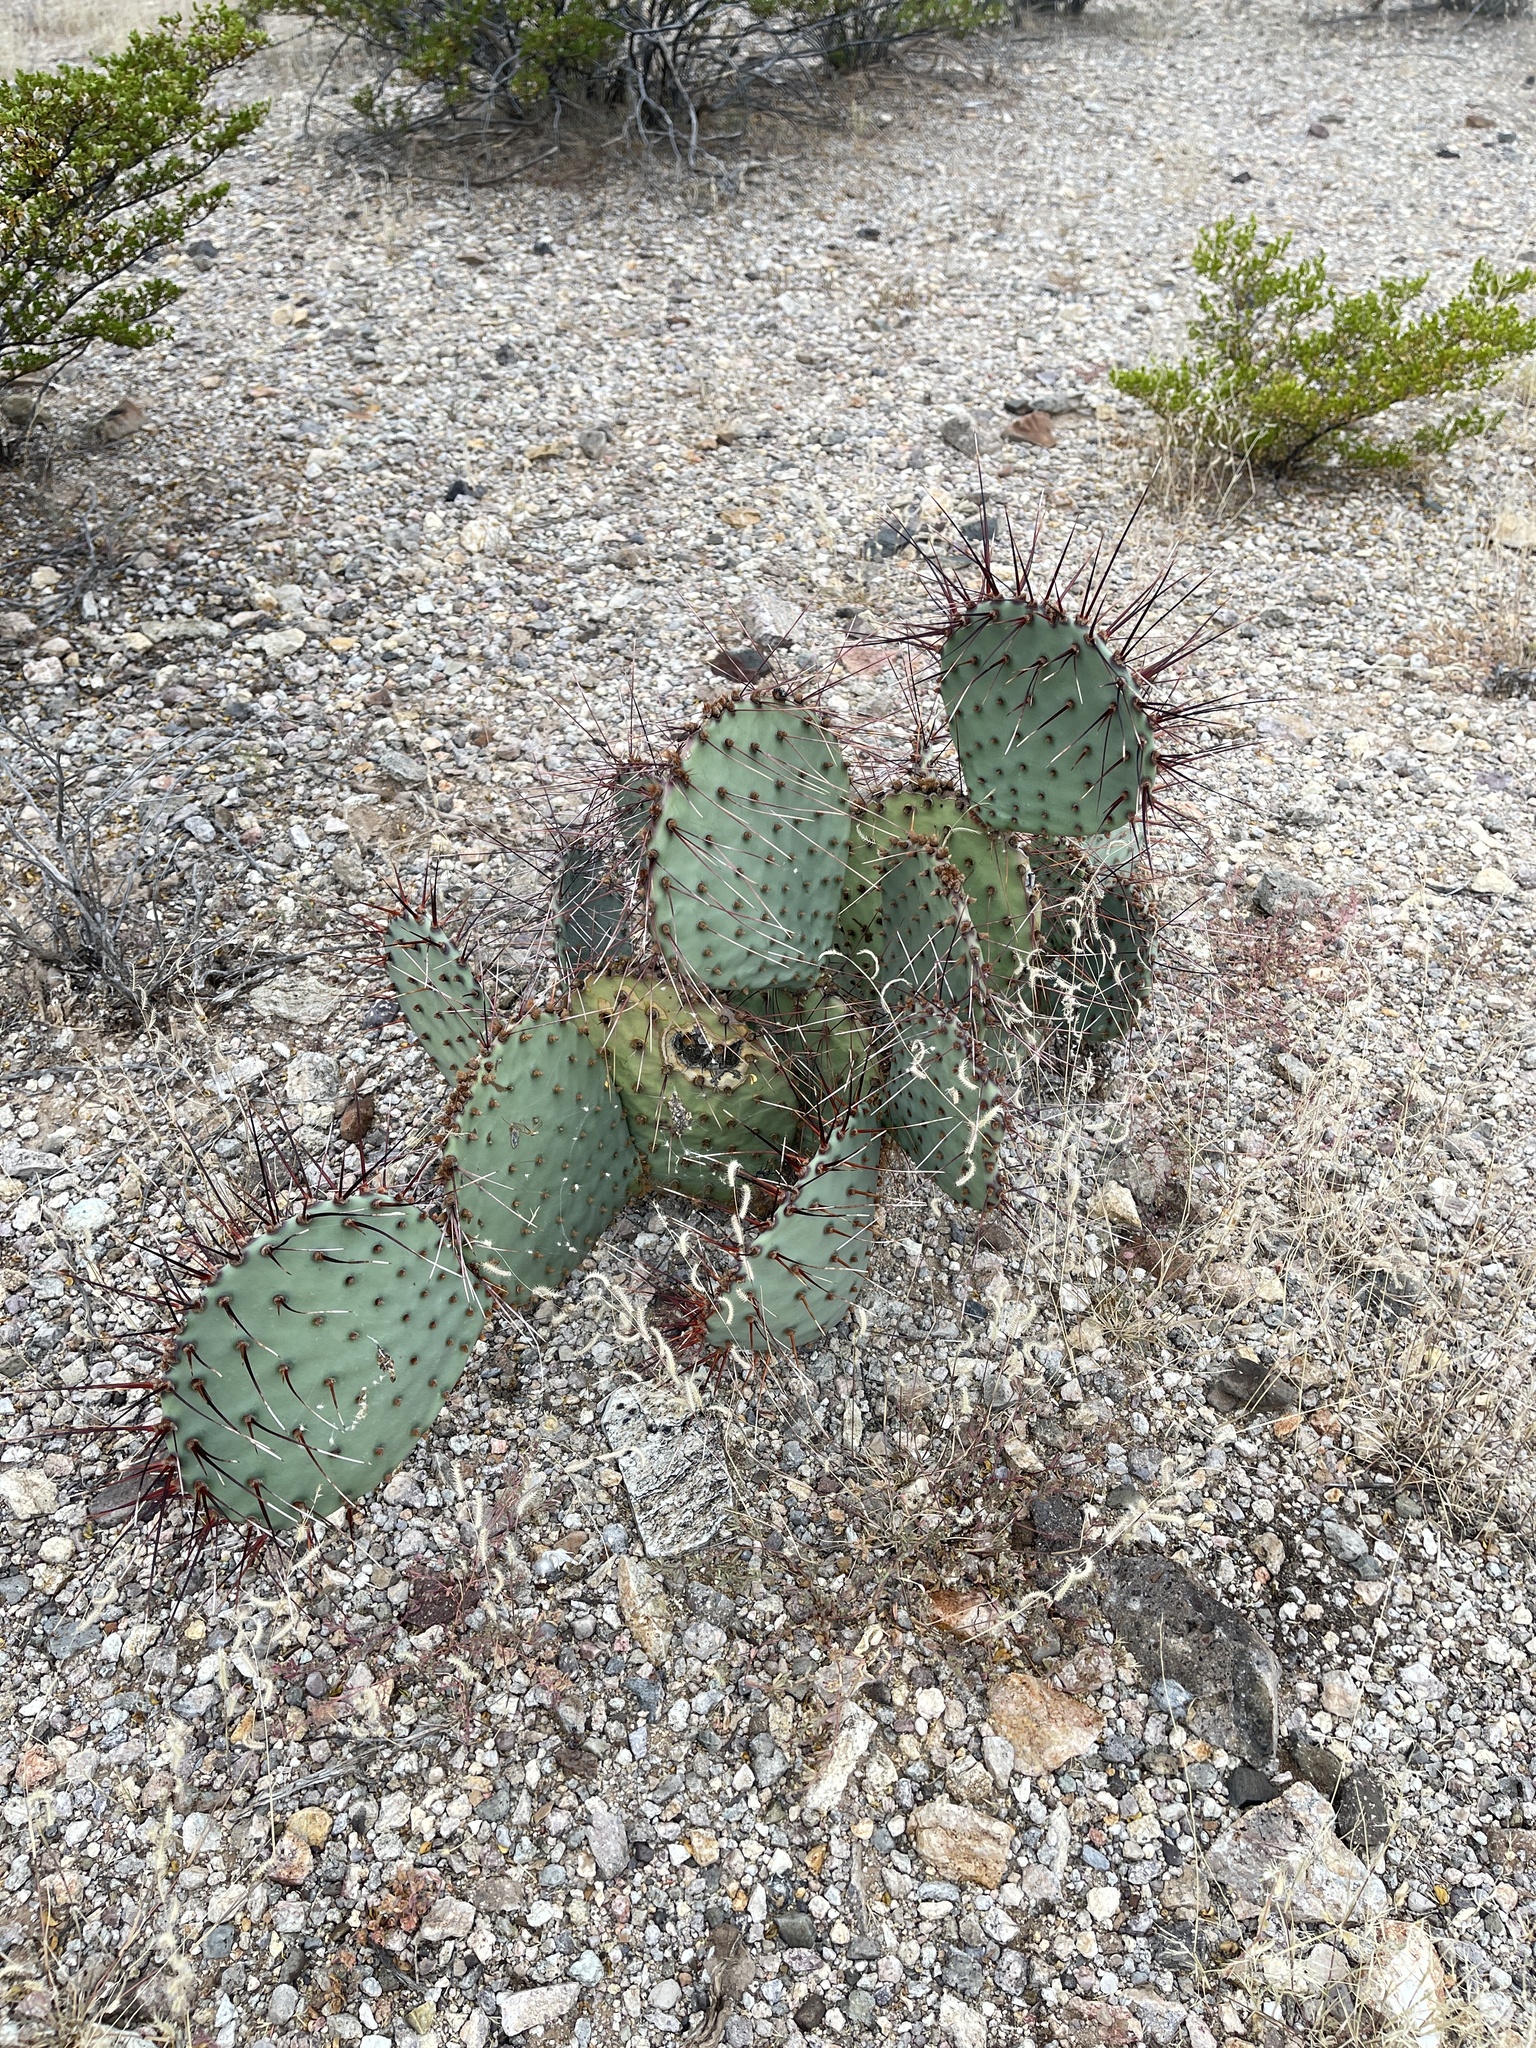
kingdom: Plantae
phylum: Tracheophyta
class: Magnoliopsida
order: Caryophyllales
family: Cactaceae
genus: Opuntia
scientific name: Opuntia macrocentra
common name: Purple prickly-pear
